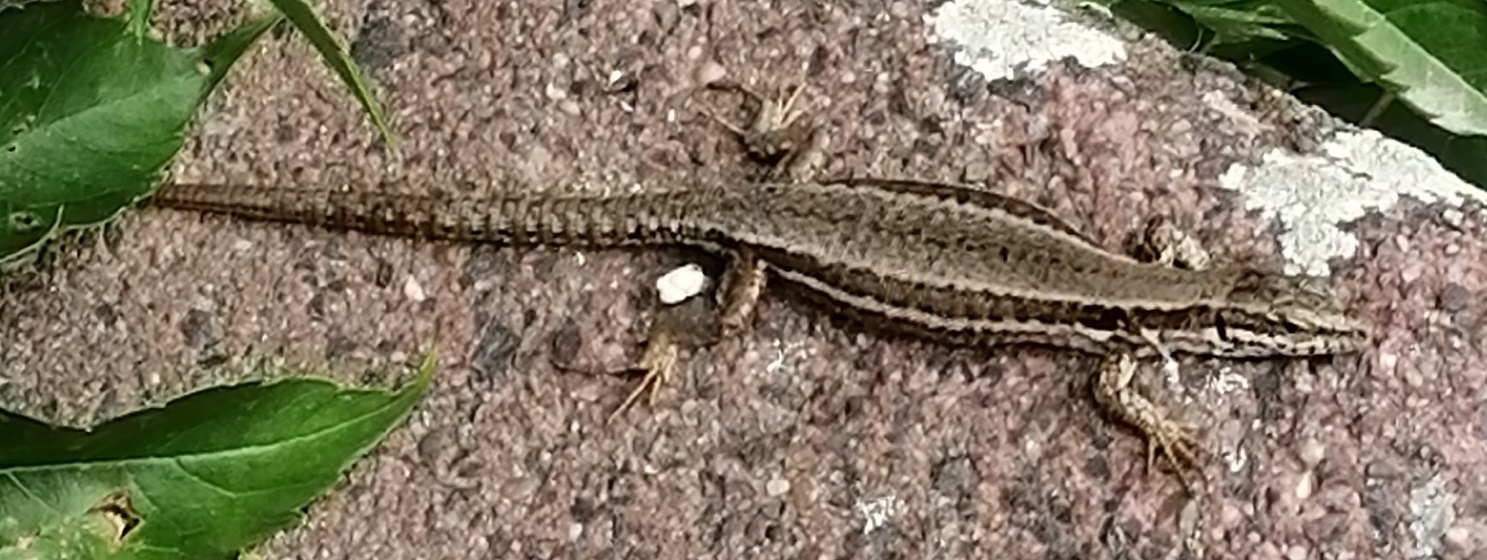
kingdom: Animalia
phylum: Chordata
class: Squamata
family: Lacertidae
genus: Podarcis
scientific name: Podarcis muralis
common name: Common wall lizard
